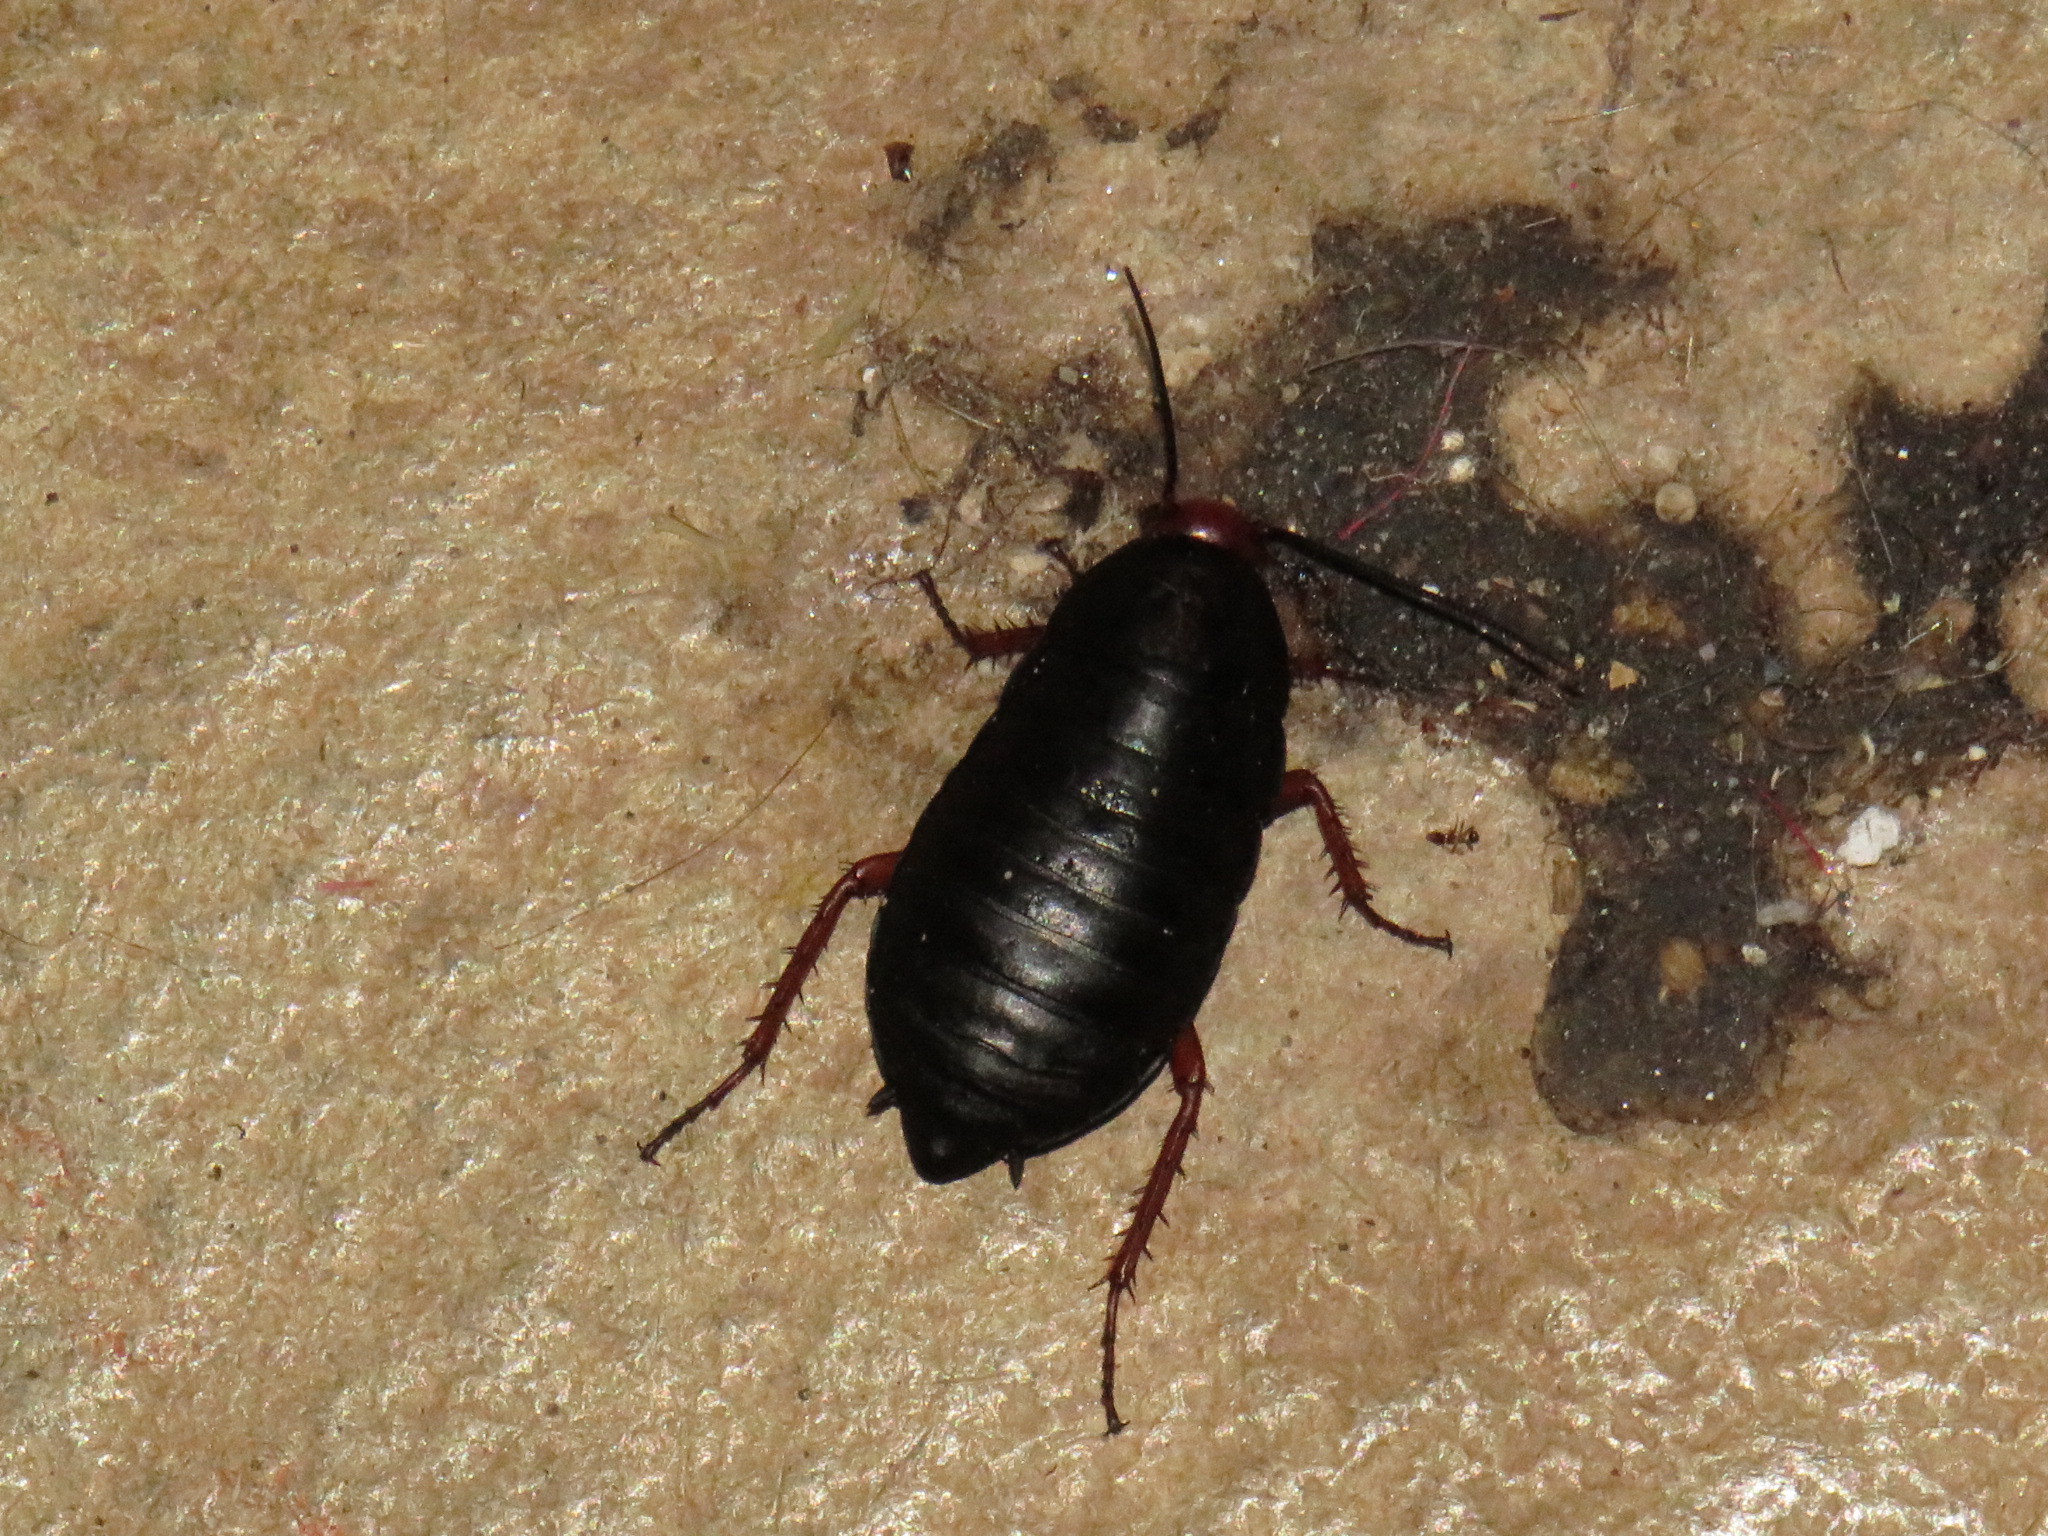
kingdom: Animalia
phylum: Arthropoda
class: Insecta
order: Blattodea
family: Blattidae
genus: Deropeltis
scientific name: Deropeltis erythrocephala
